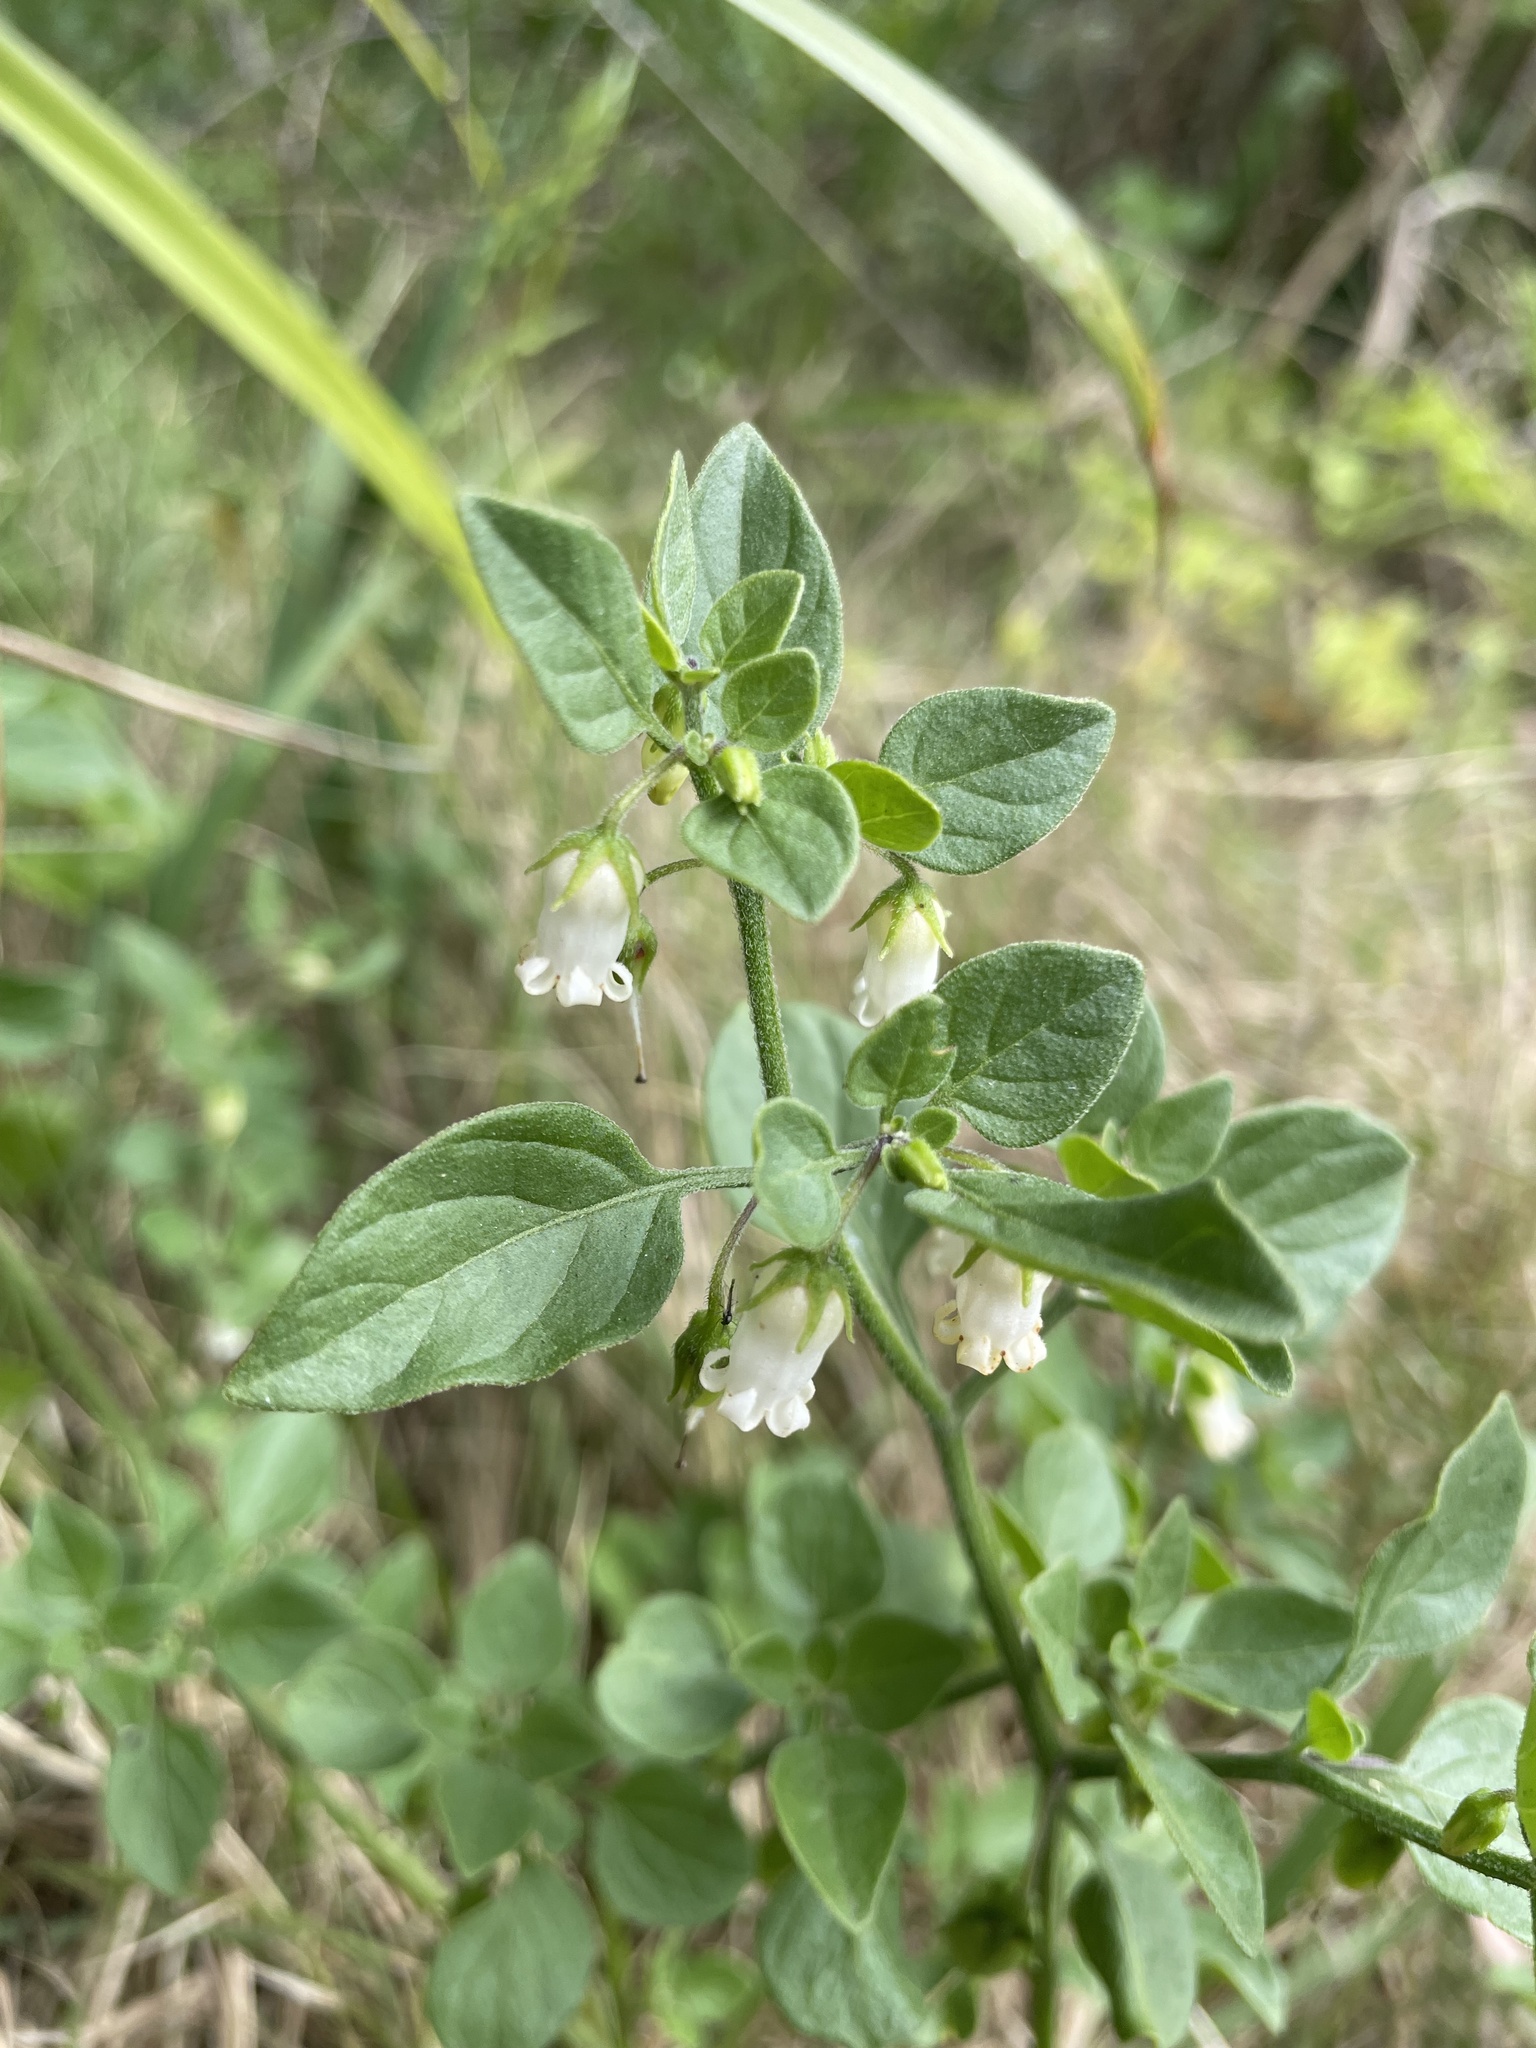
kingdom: Plantae
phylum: Tracheophyta
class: Magnoliopsida
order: Solanales
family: Solanaceae
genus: Salpichroa
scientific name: Salpichroa origanifolia
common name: Lily-of-the-valley-vine
